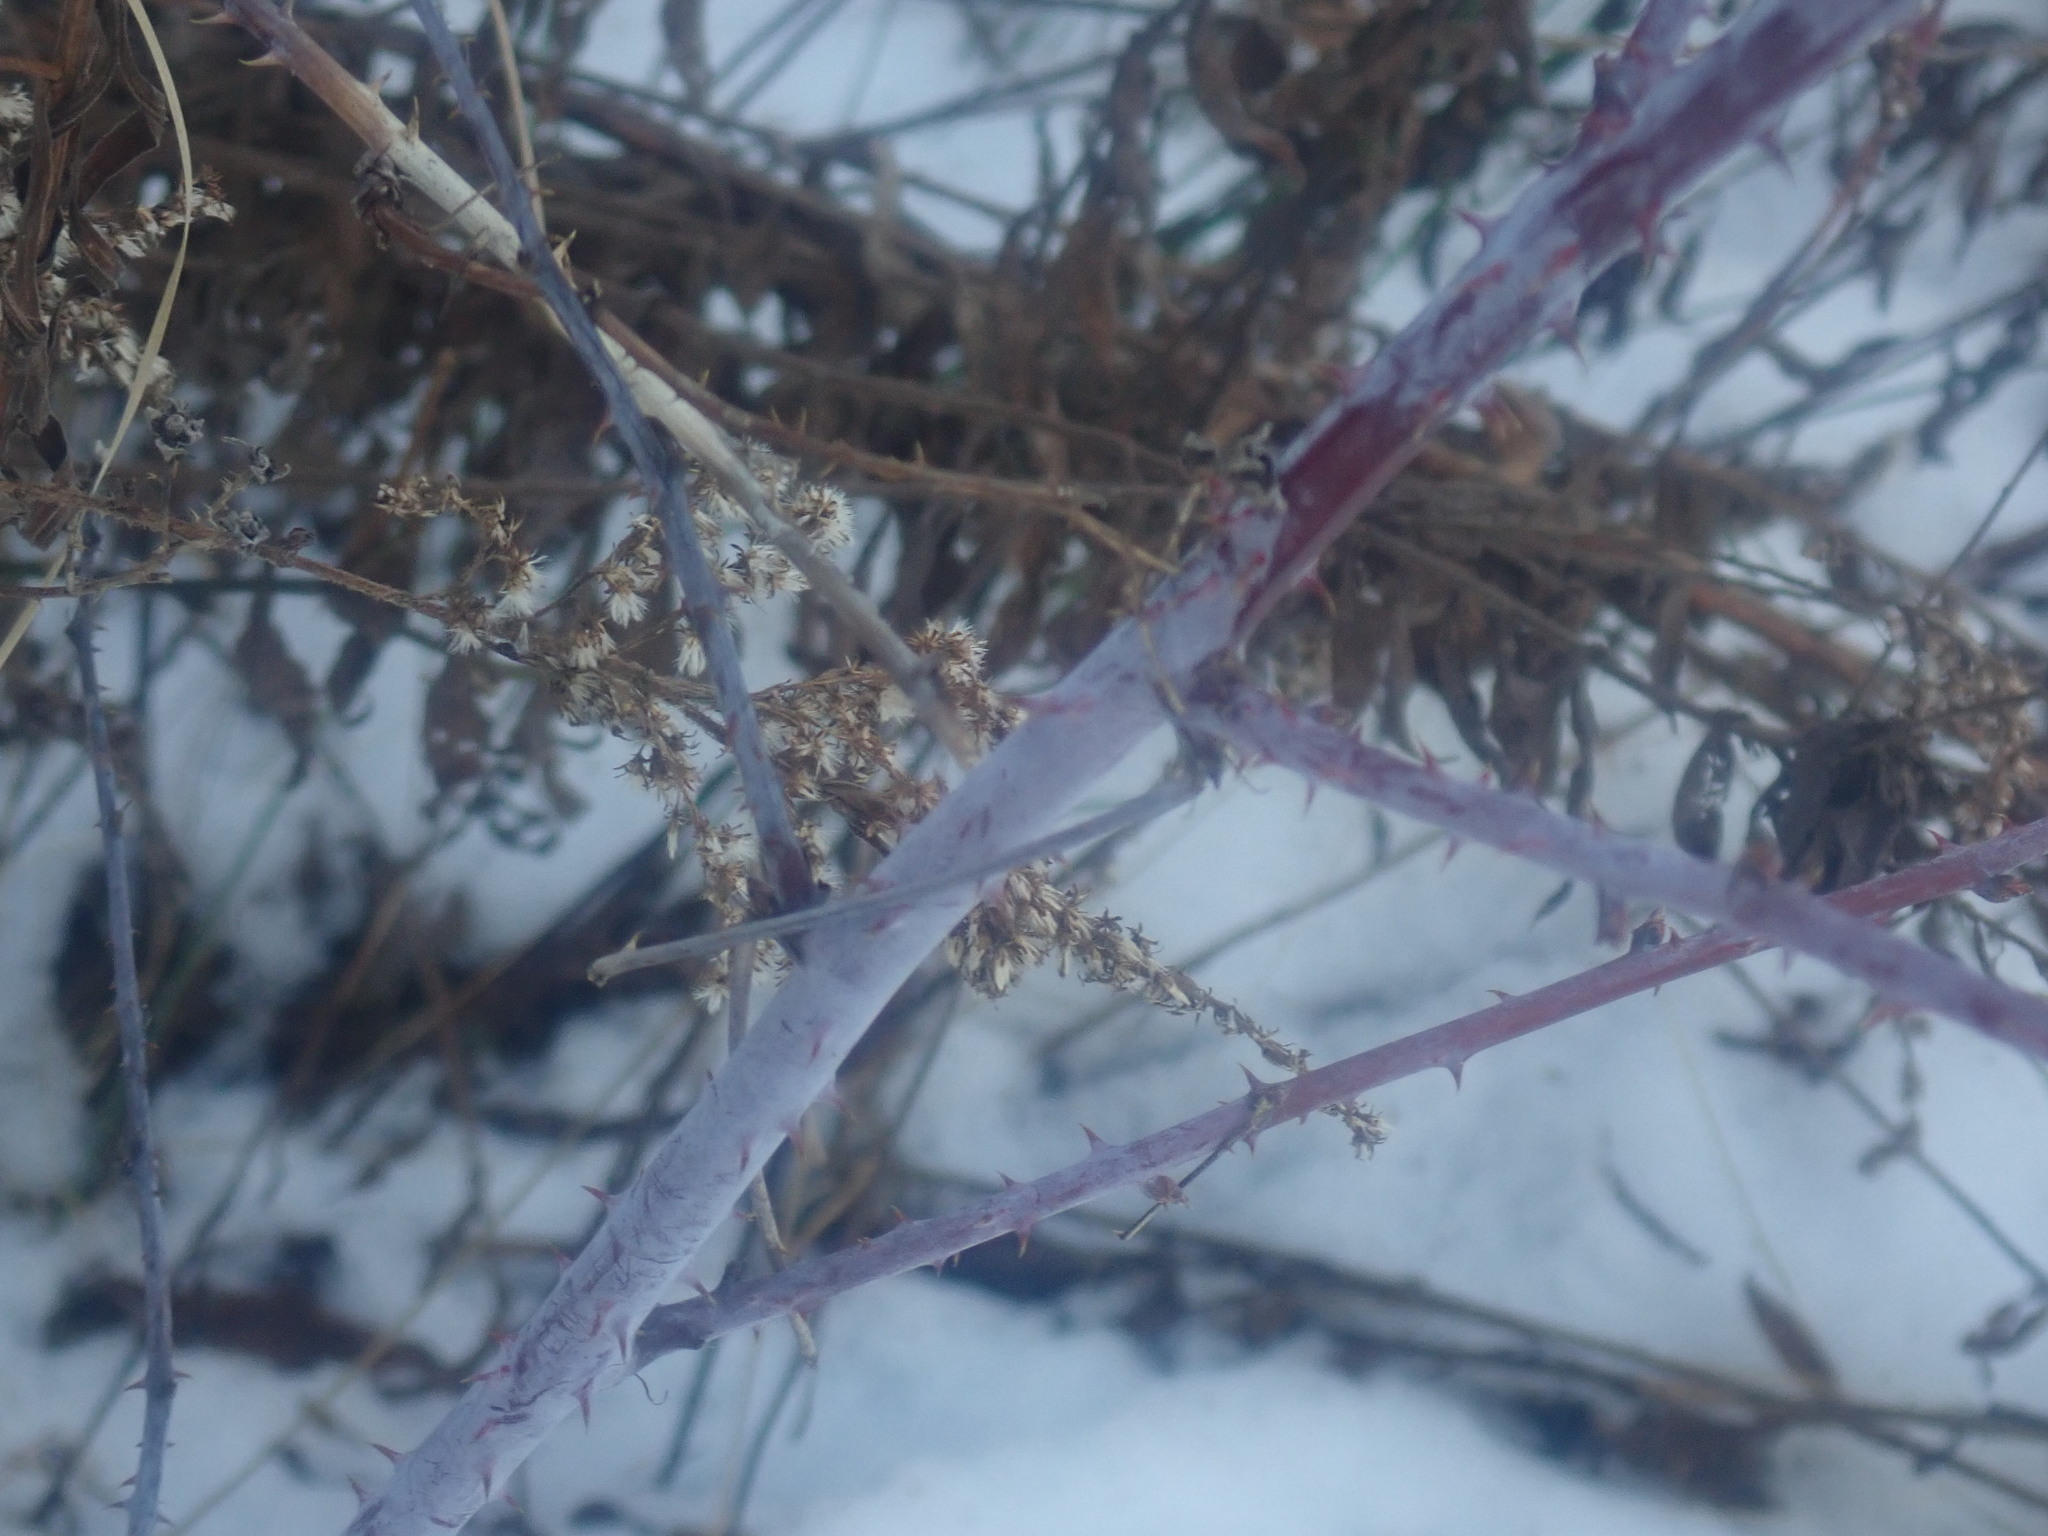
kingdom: Plantae
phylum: Tracheophyta
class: Magnoliopsida
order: Rosales
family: Rosaceae
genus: Rubus
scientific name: Rubus occidentalis
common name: Black raspberry
